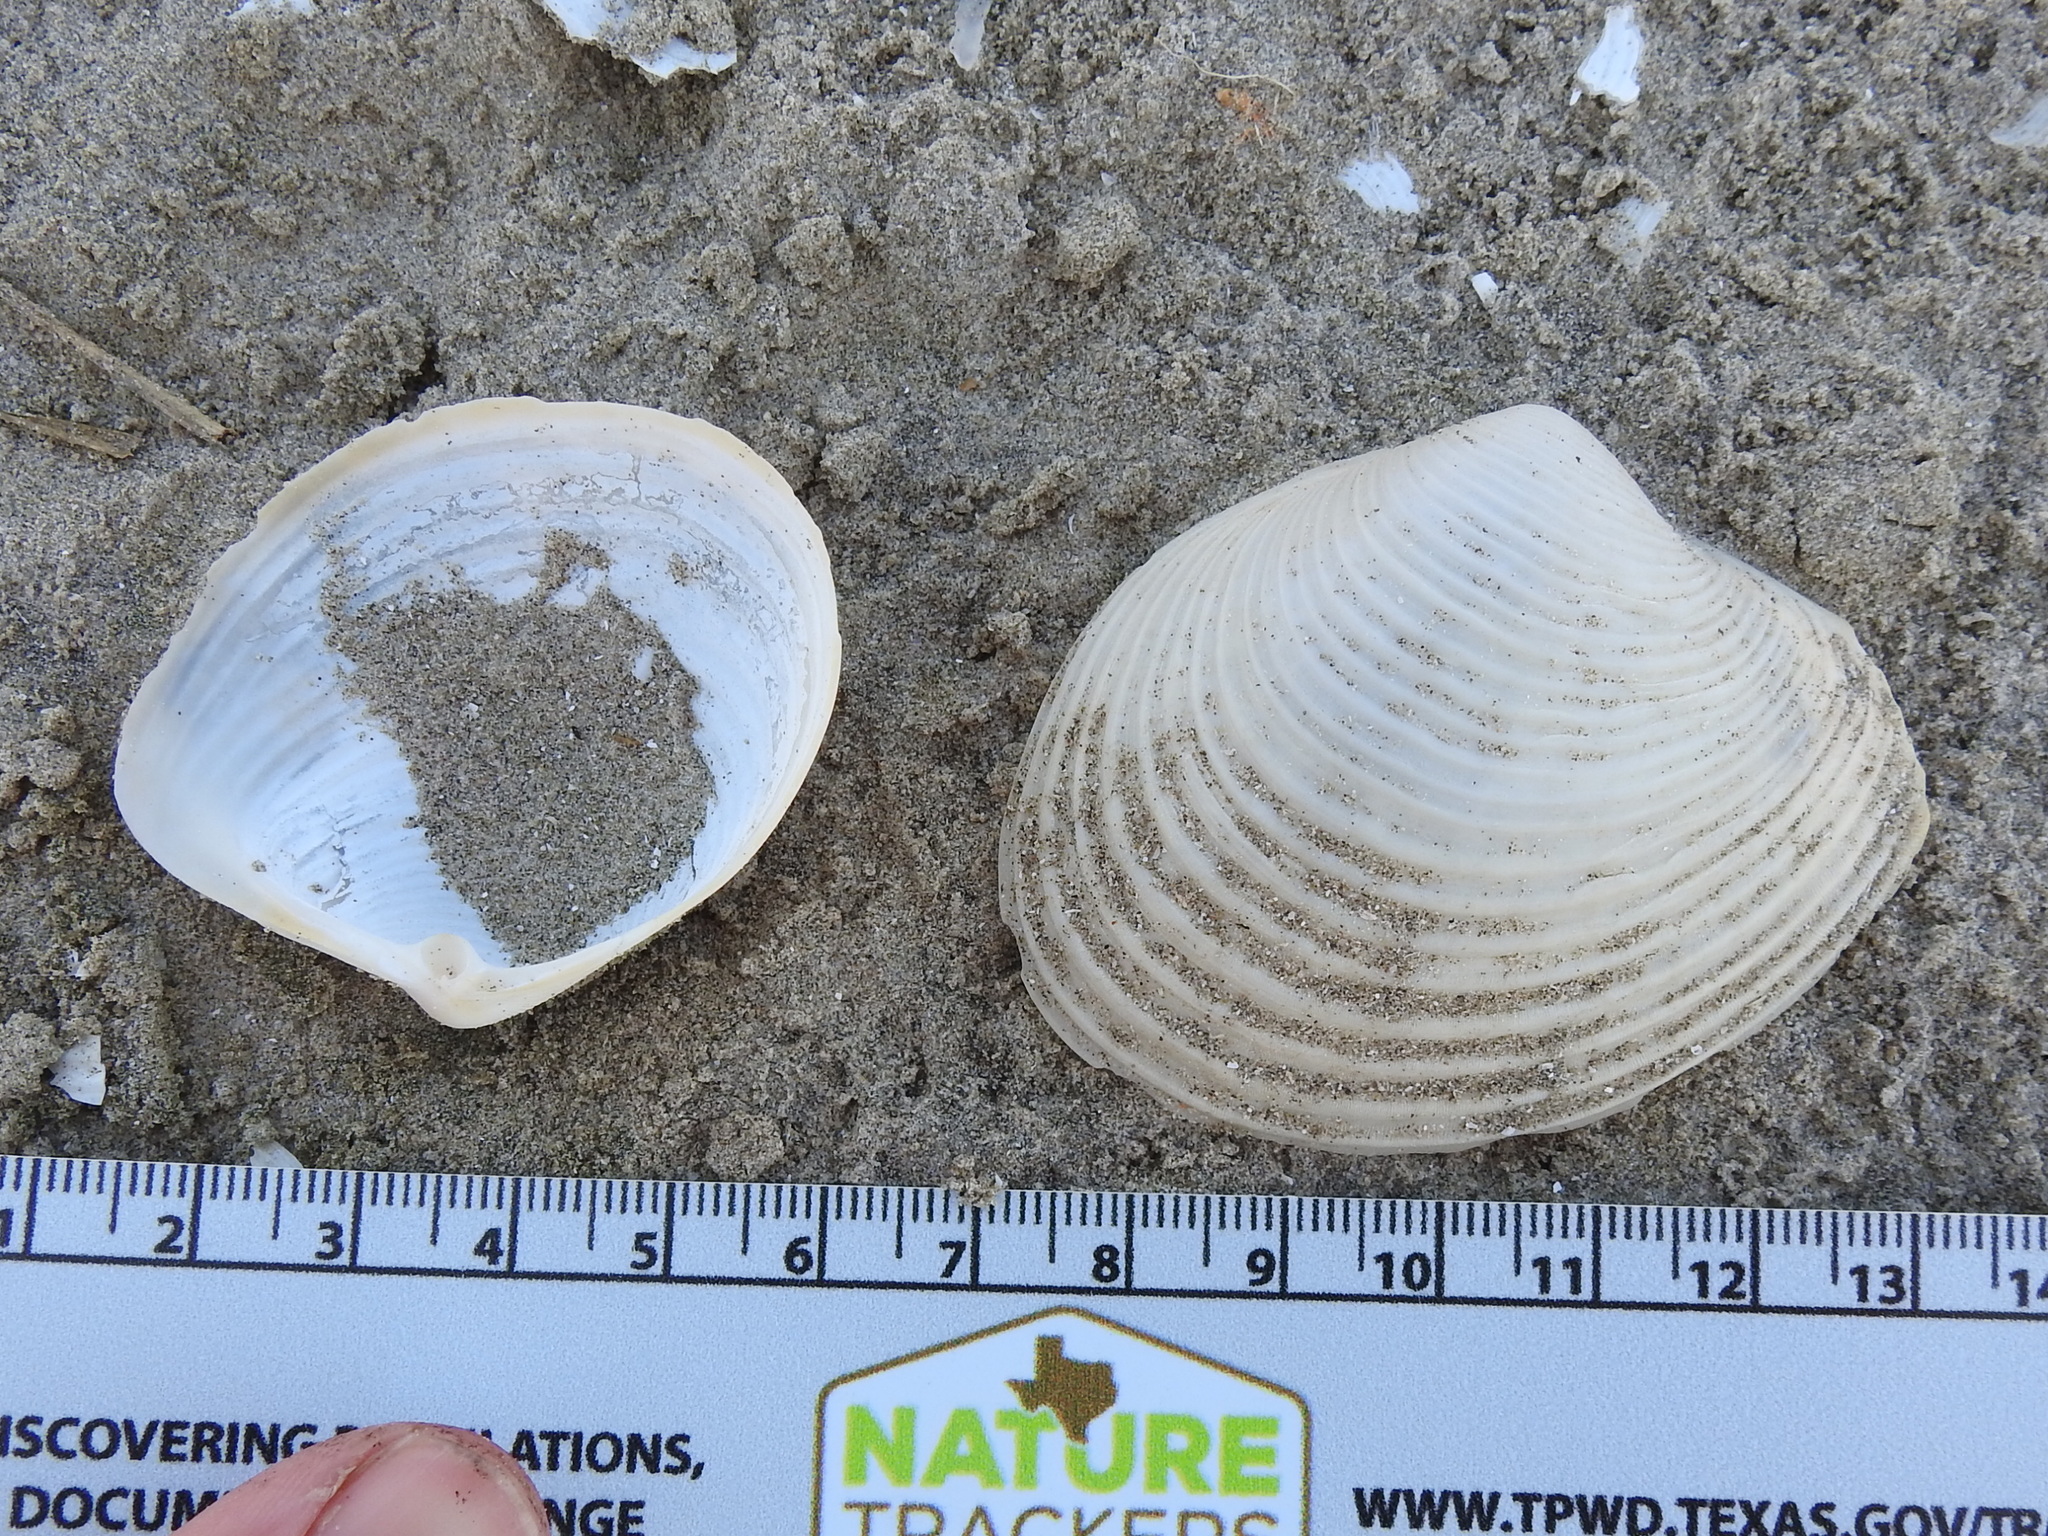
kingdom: Animalia
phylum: Mollusca
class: Bivalvia
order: Venerida
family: Anatinellidae
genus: Raeta
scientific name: Raeta plicatella
